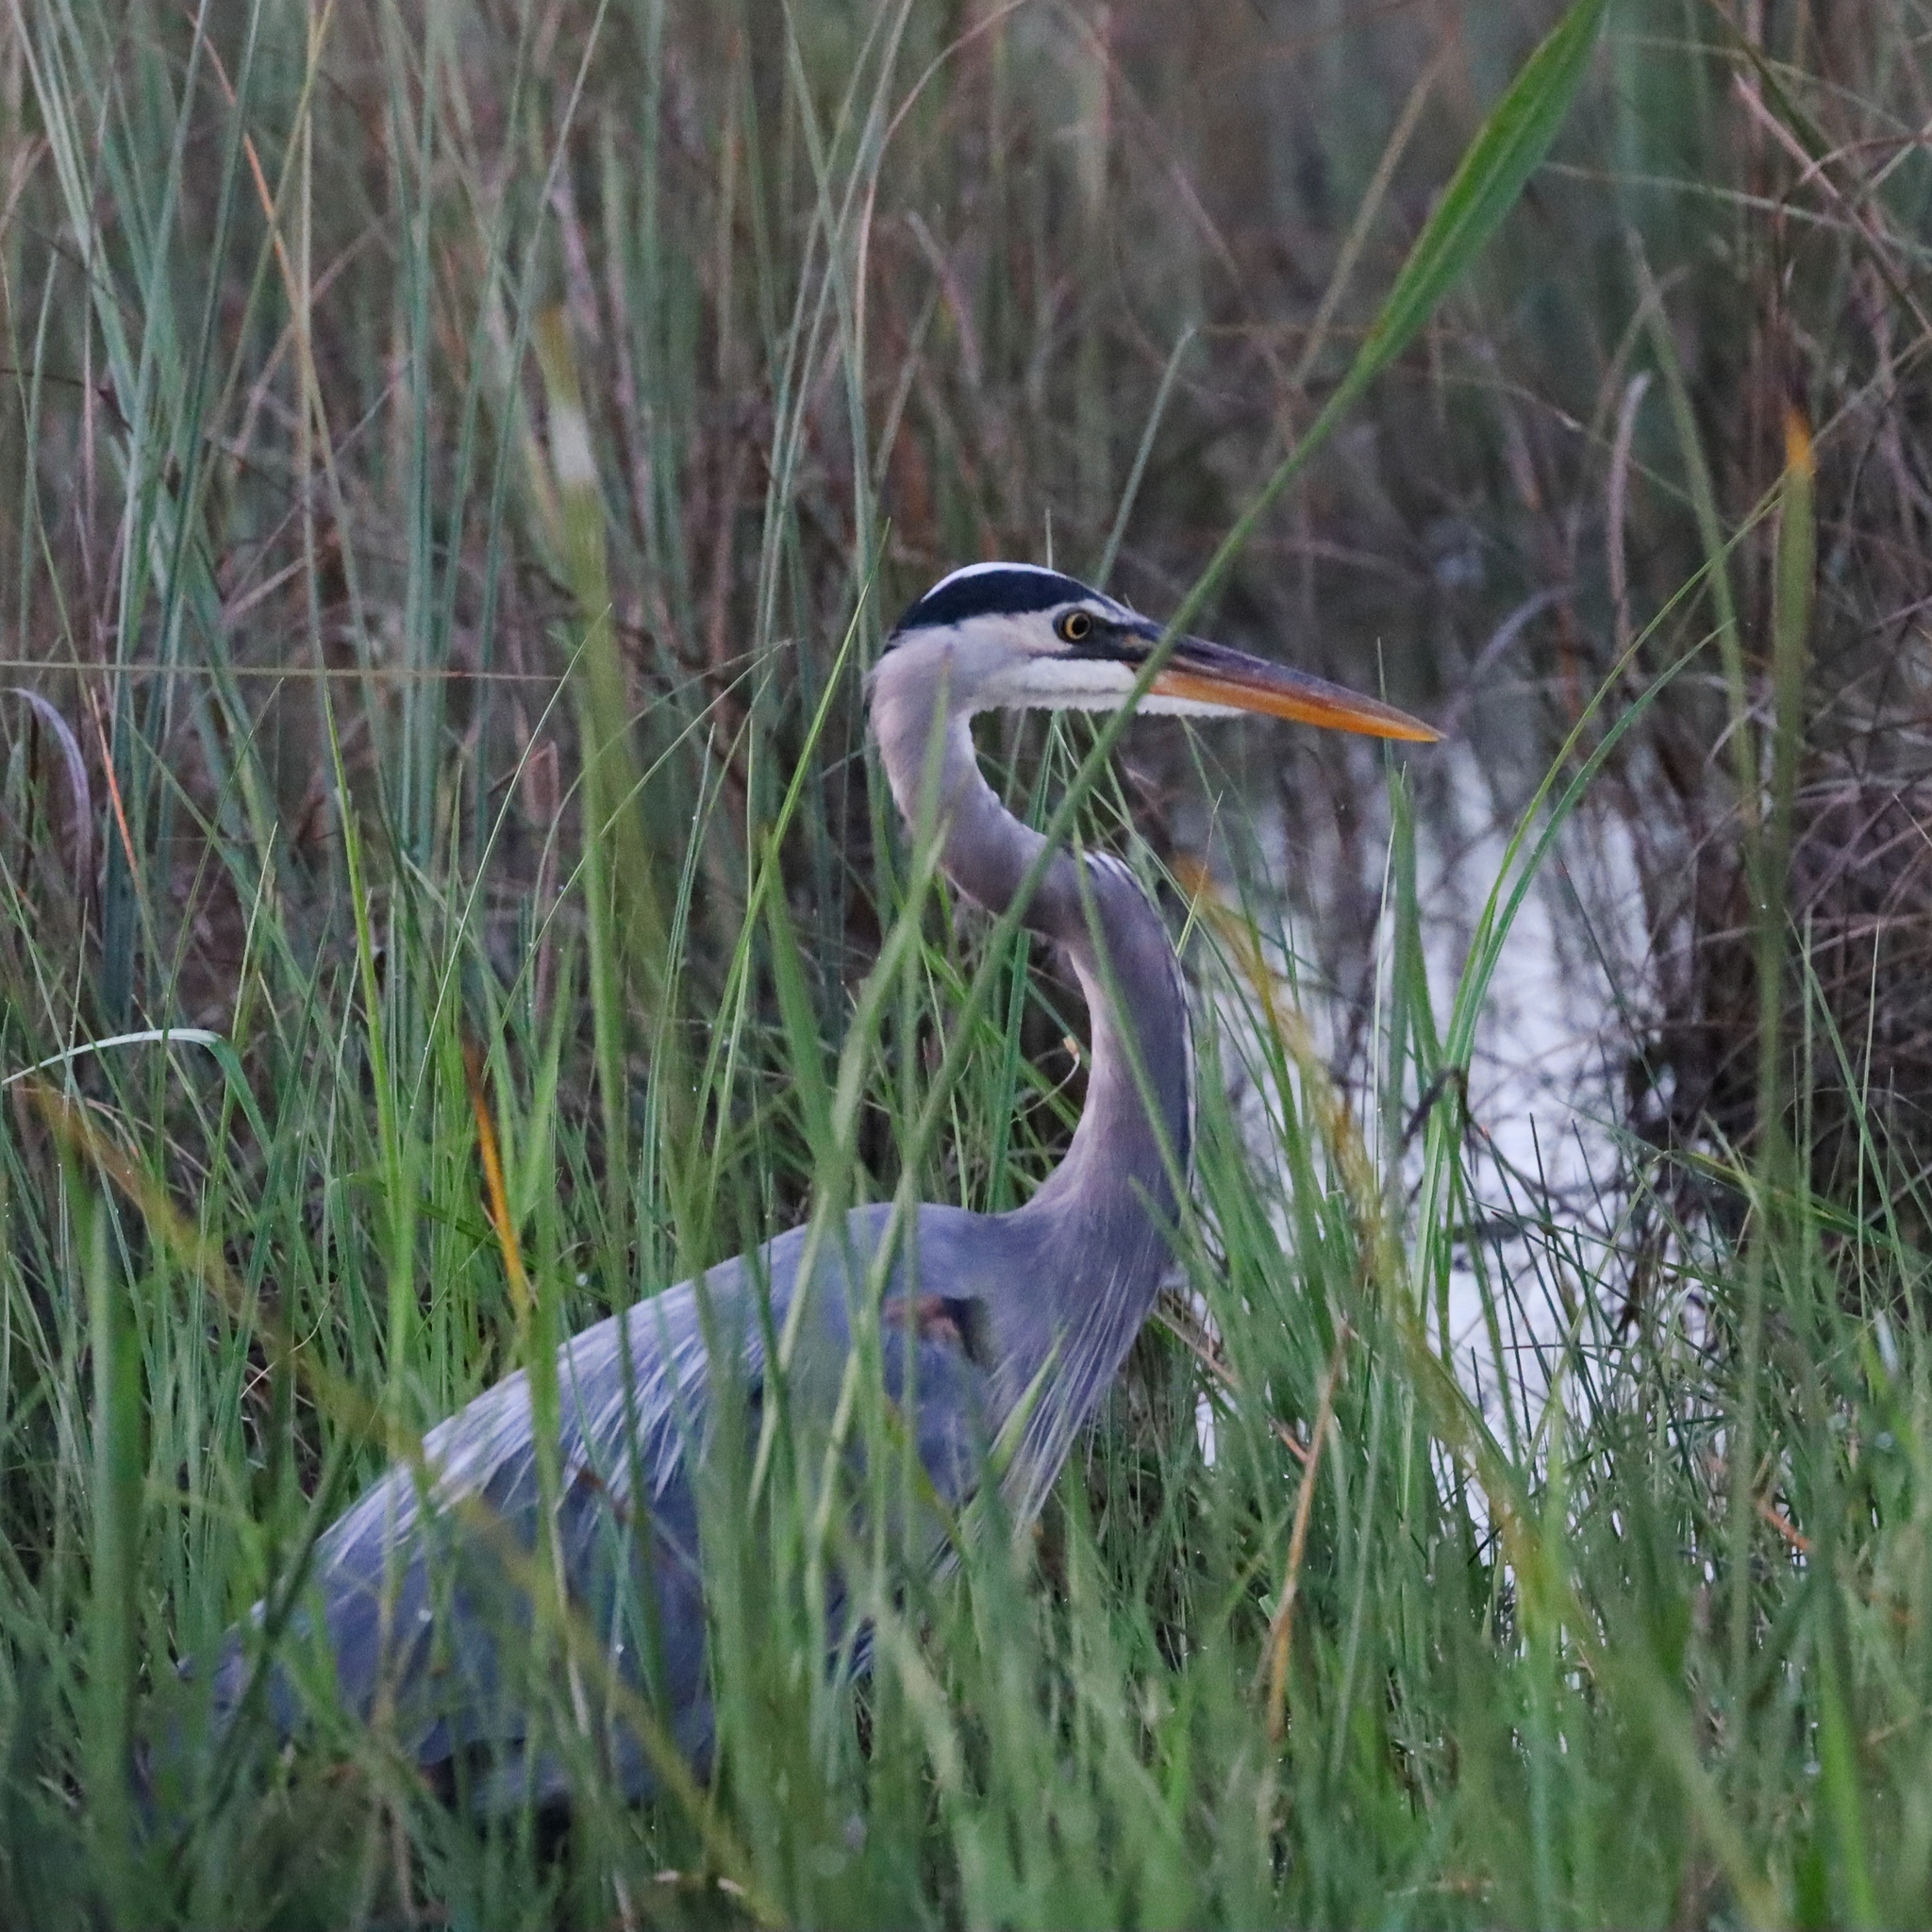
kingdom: Animalia
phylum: Chordata
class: Aves
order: Pelecaniformes
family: Ardeidae
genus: Ardea
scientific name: Ardea herodias
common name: Great blue heron
